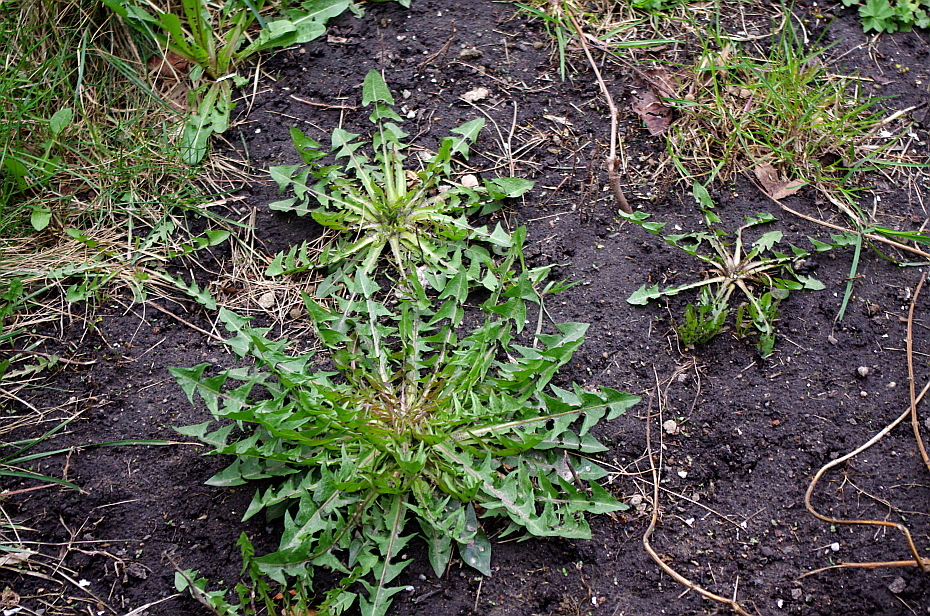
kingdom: Plantae
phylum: Tracheophyta
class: Magnoliopsida
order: Asterales
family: Asteraceae
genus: Taraxacum
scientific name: Taraxacum officinale
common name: Common dandelion
